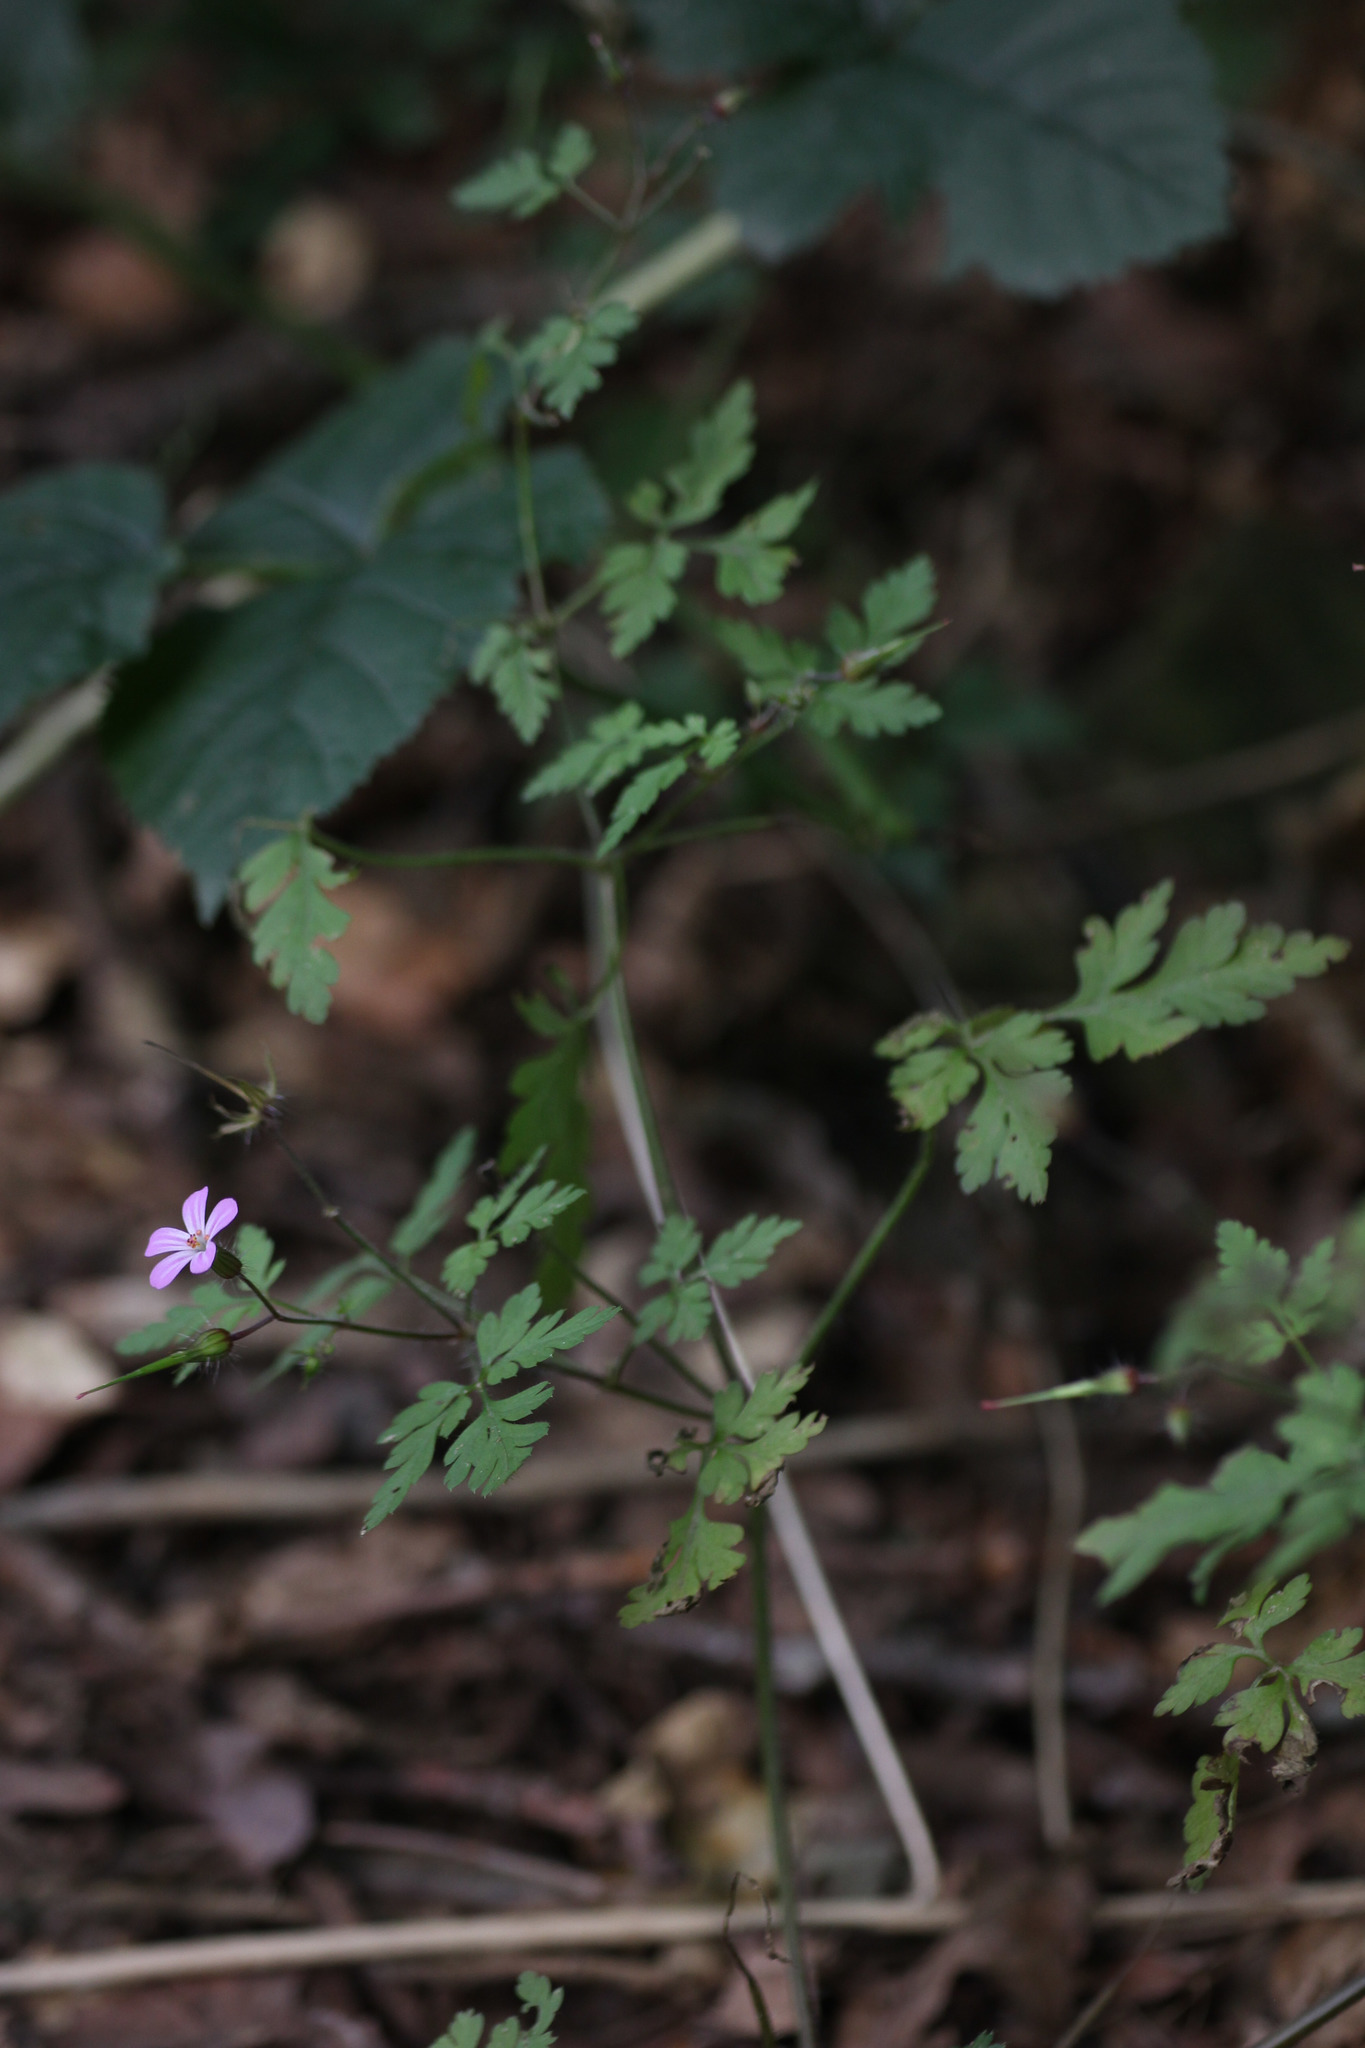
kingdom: Plantae
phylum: Tracheophyta
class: Magnoliopsida
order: Geraniales
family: Geraniaceae
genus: Geranium
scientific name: Geranium robertianum
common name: Herb-robert
